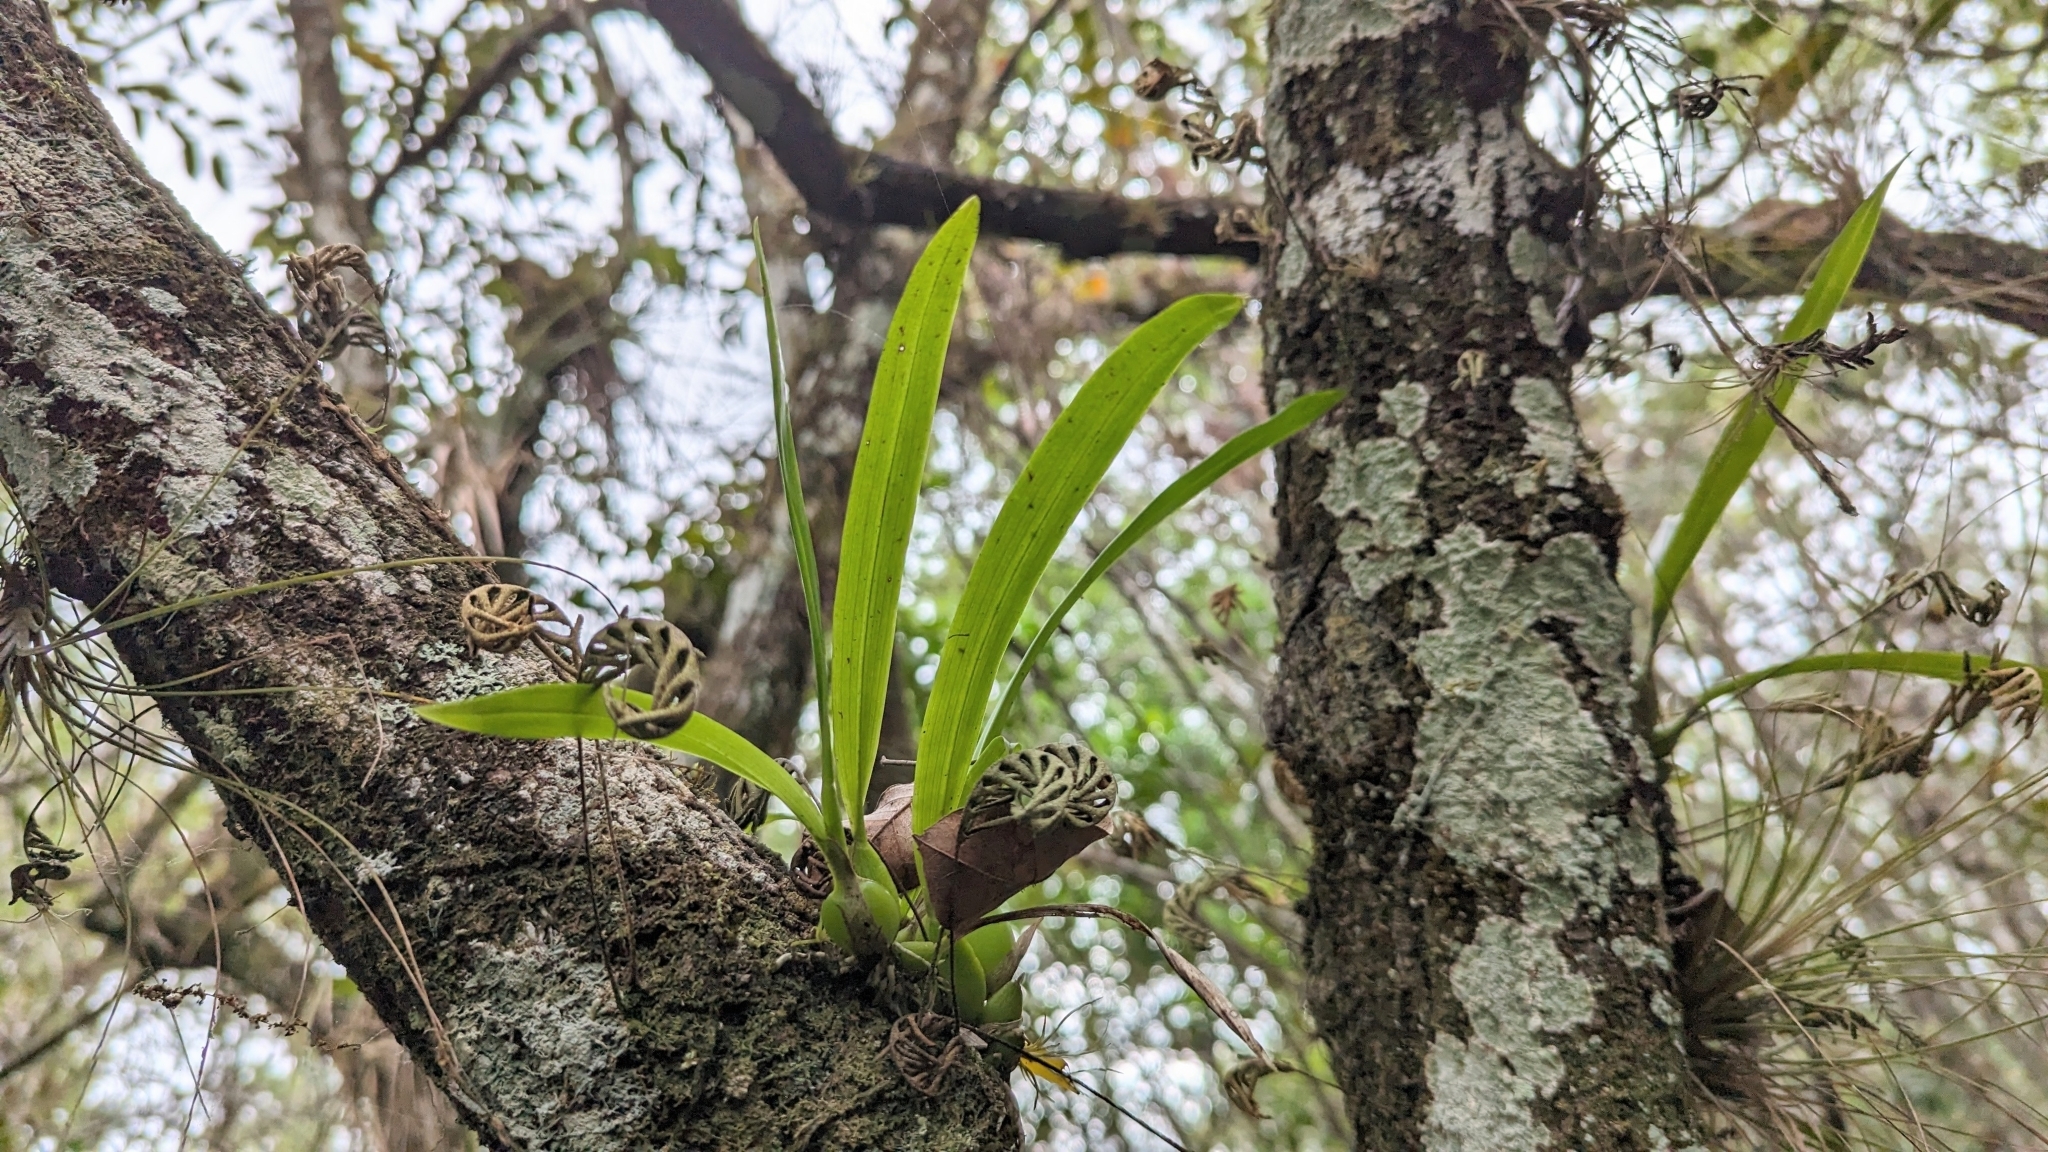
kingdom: Plantae
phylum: Tracheophyta
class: Liliopsida
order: Asparagales
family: Orchidaceae
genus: Prosthechea
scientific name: Prosthechea cochleata
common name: Clamshell orchid
